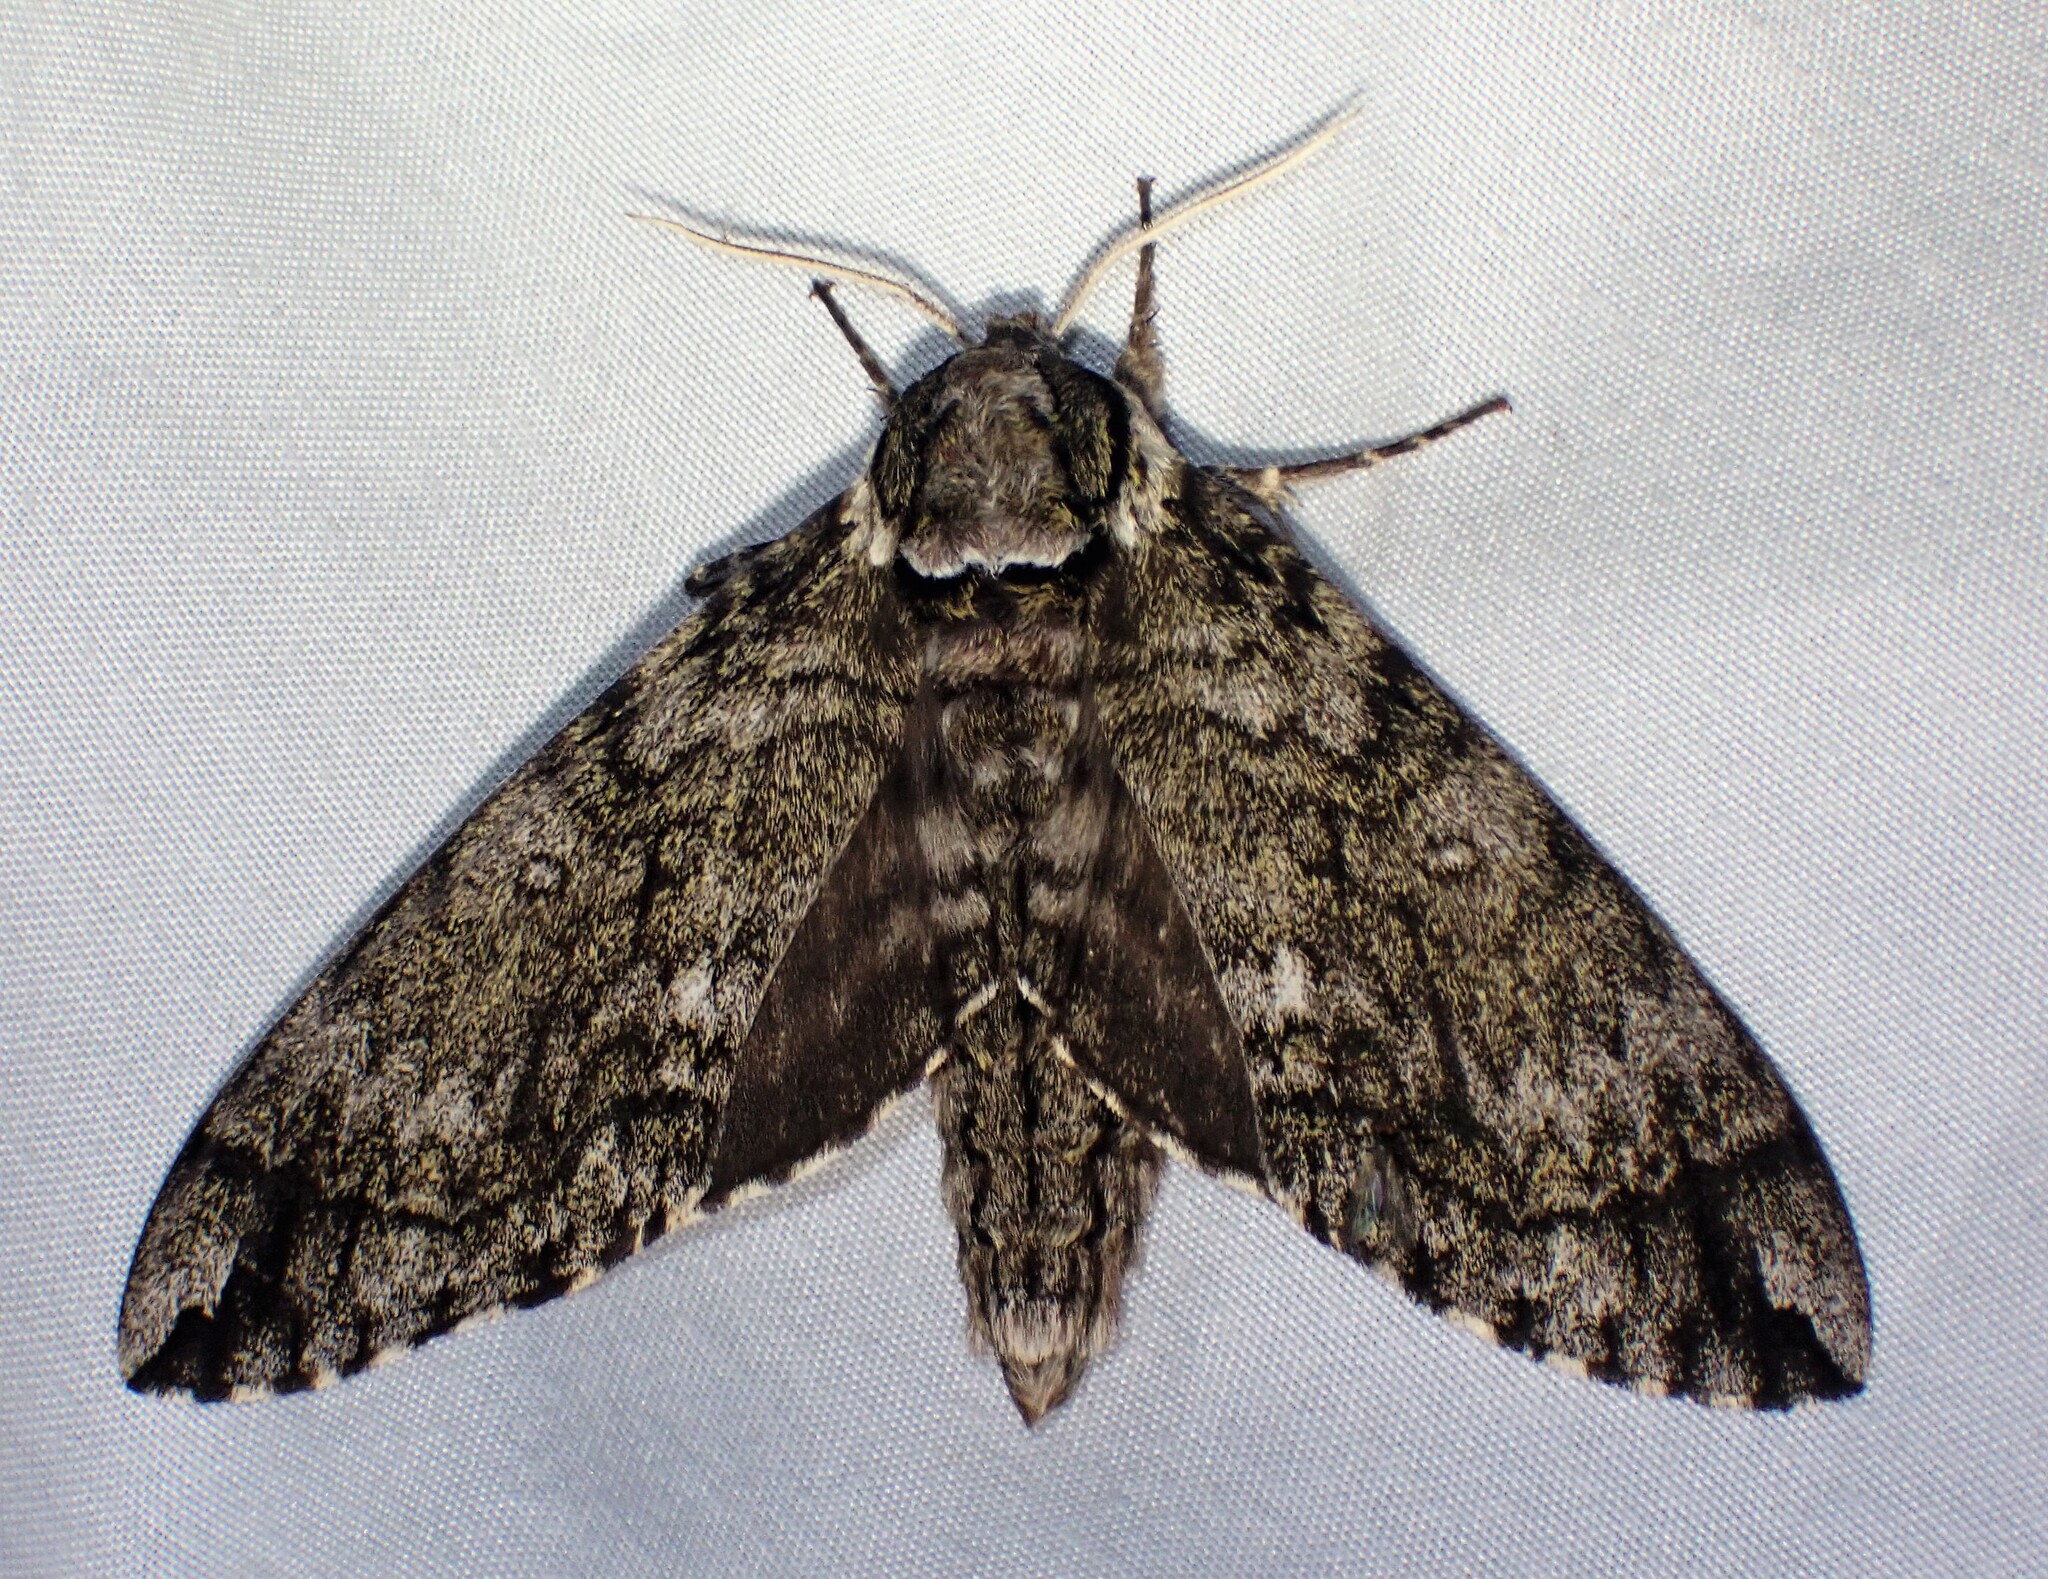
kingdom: Animalia
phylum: Arthropoda
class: Insecta
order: Lepidoptera
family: Sphingidae
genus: Ceratomia
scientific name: Ceratomia undulosa
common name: Waved sphinx
